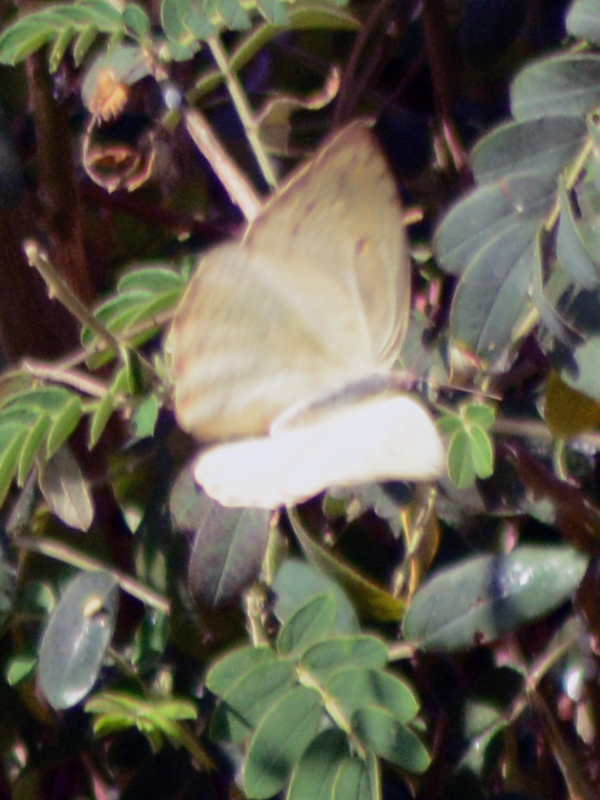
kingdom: Animalia
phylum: Arthropoda
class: Insecta
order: Lepidoptera
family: Pieridae
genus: Phoebis
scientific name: Phoebis philea
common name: Orange-barred giant sulphur
